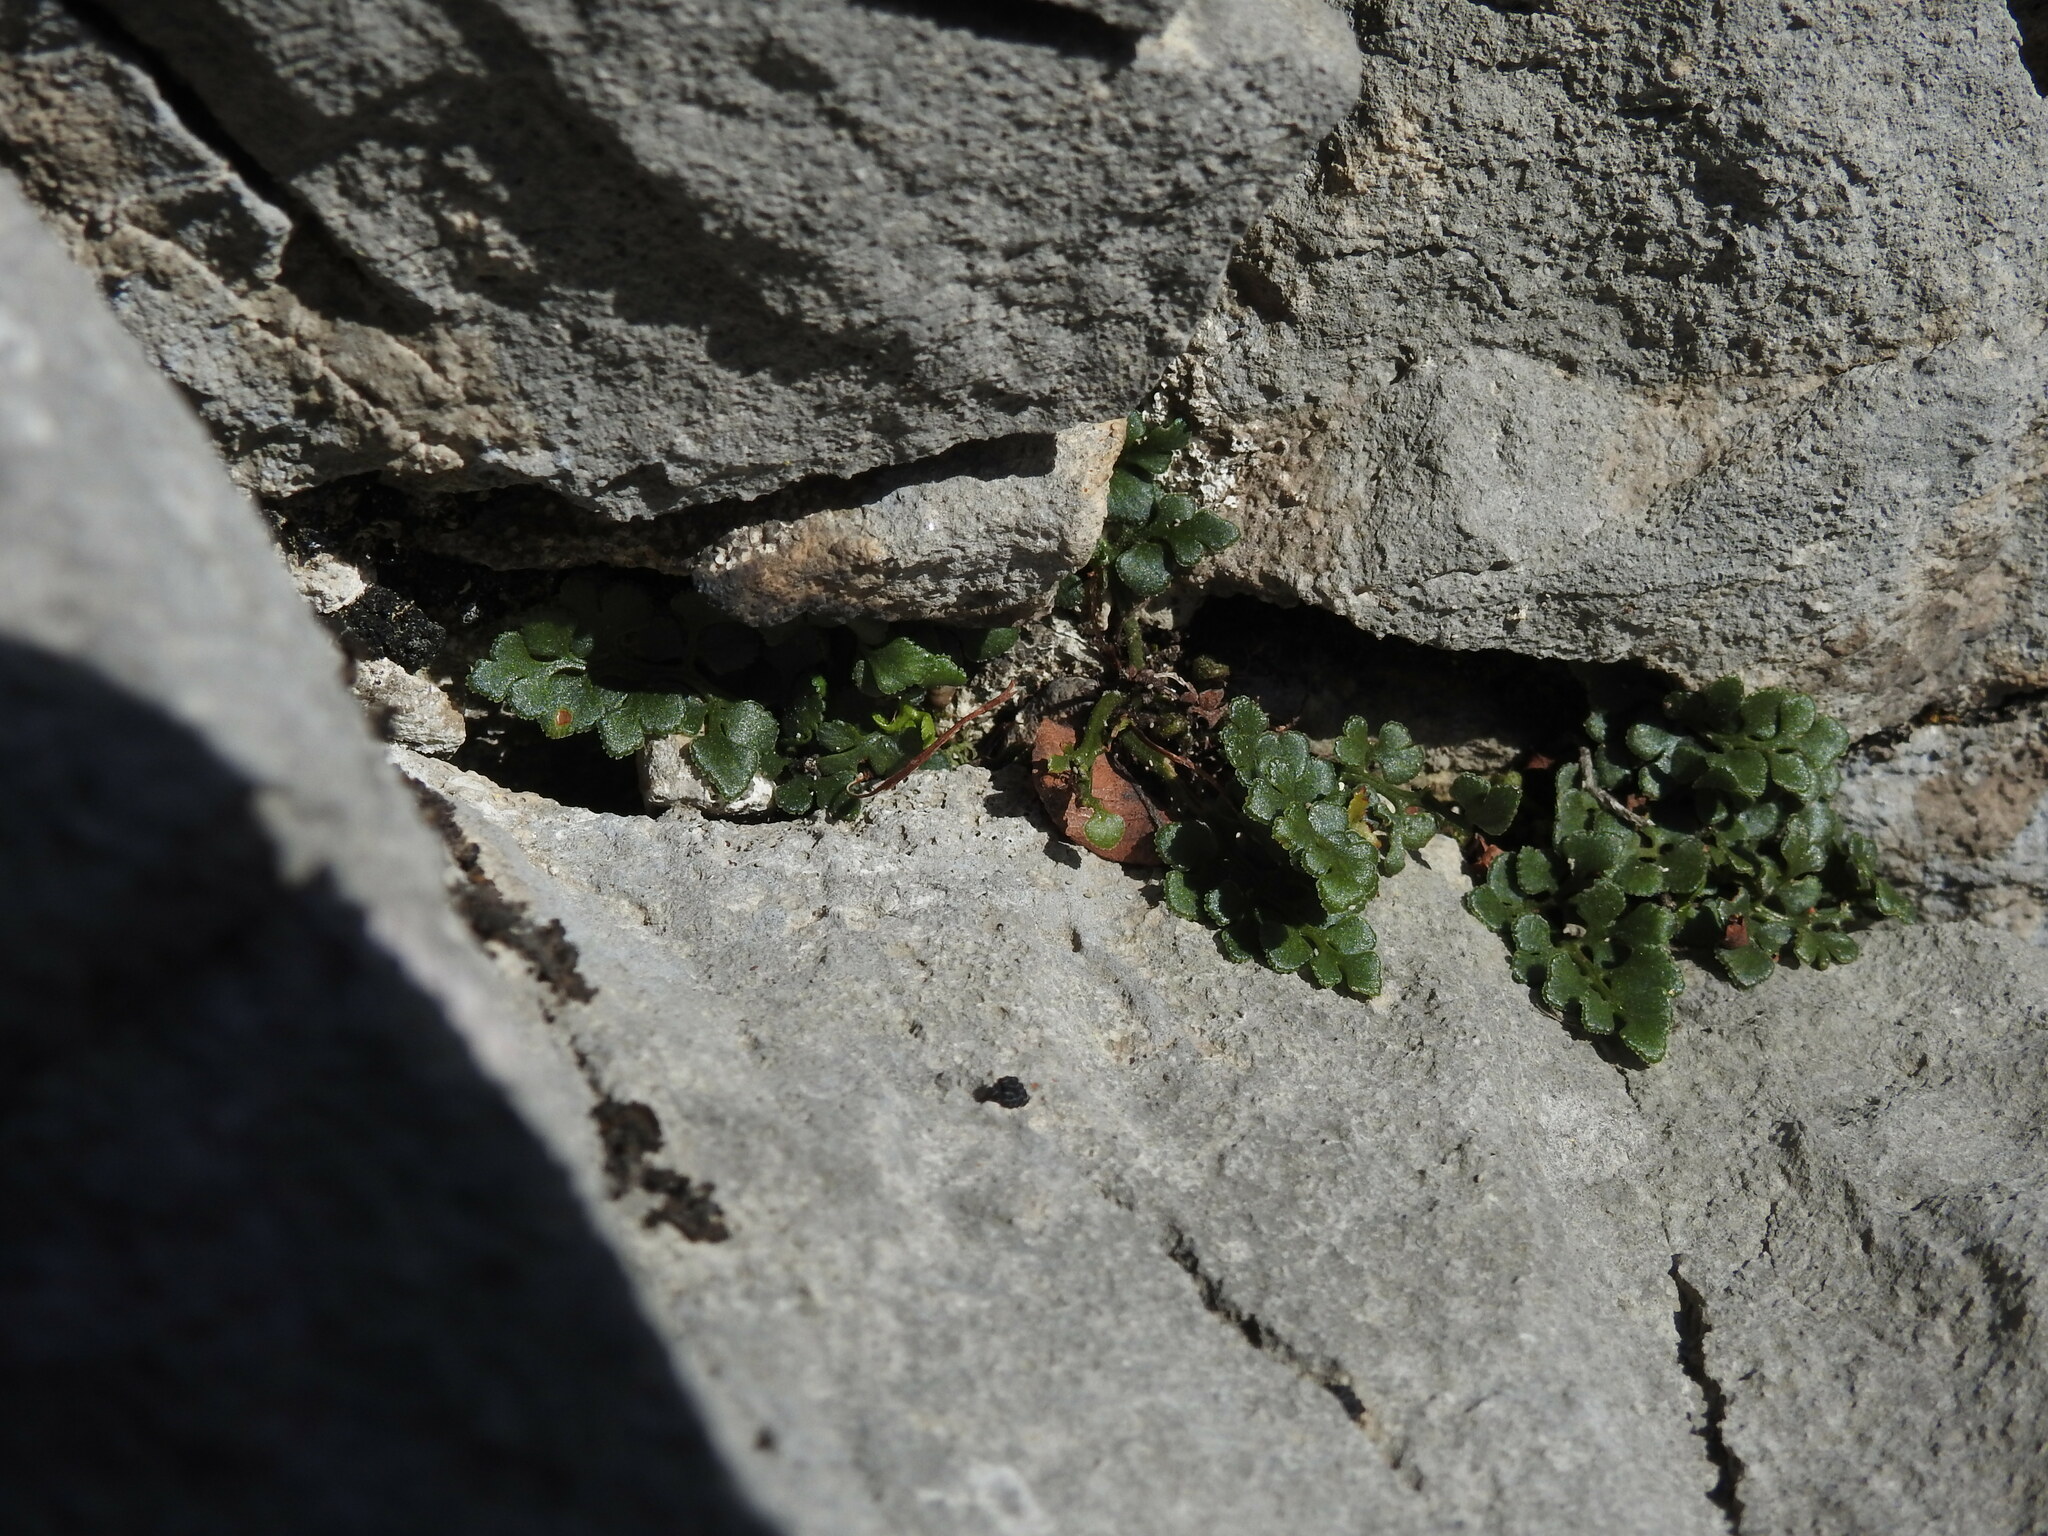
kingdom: Plantae
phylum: Tracheophyta
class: Polypodiopsida
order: Polypodiales
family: Aspleniaceae
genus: Asplenium
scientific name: Asplenium ruta-muraria
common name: Wall-rue
